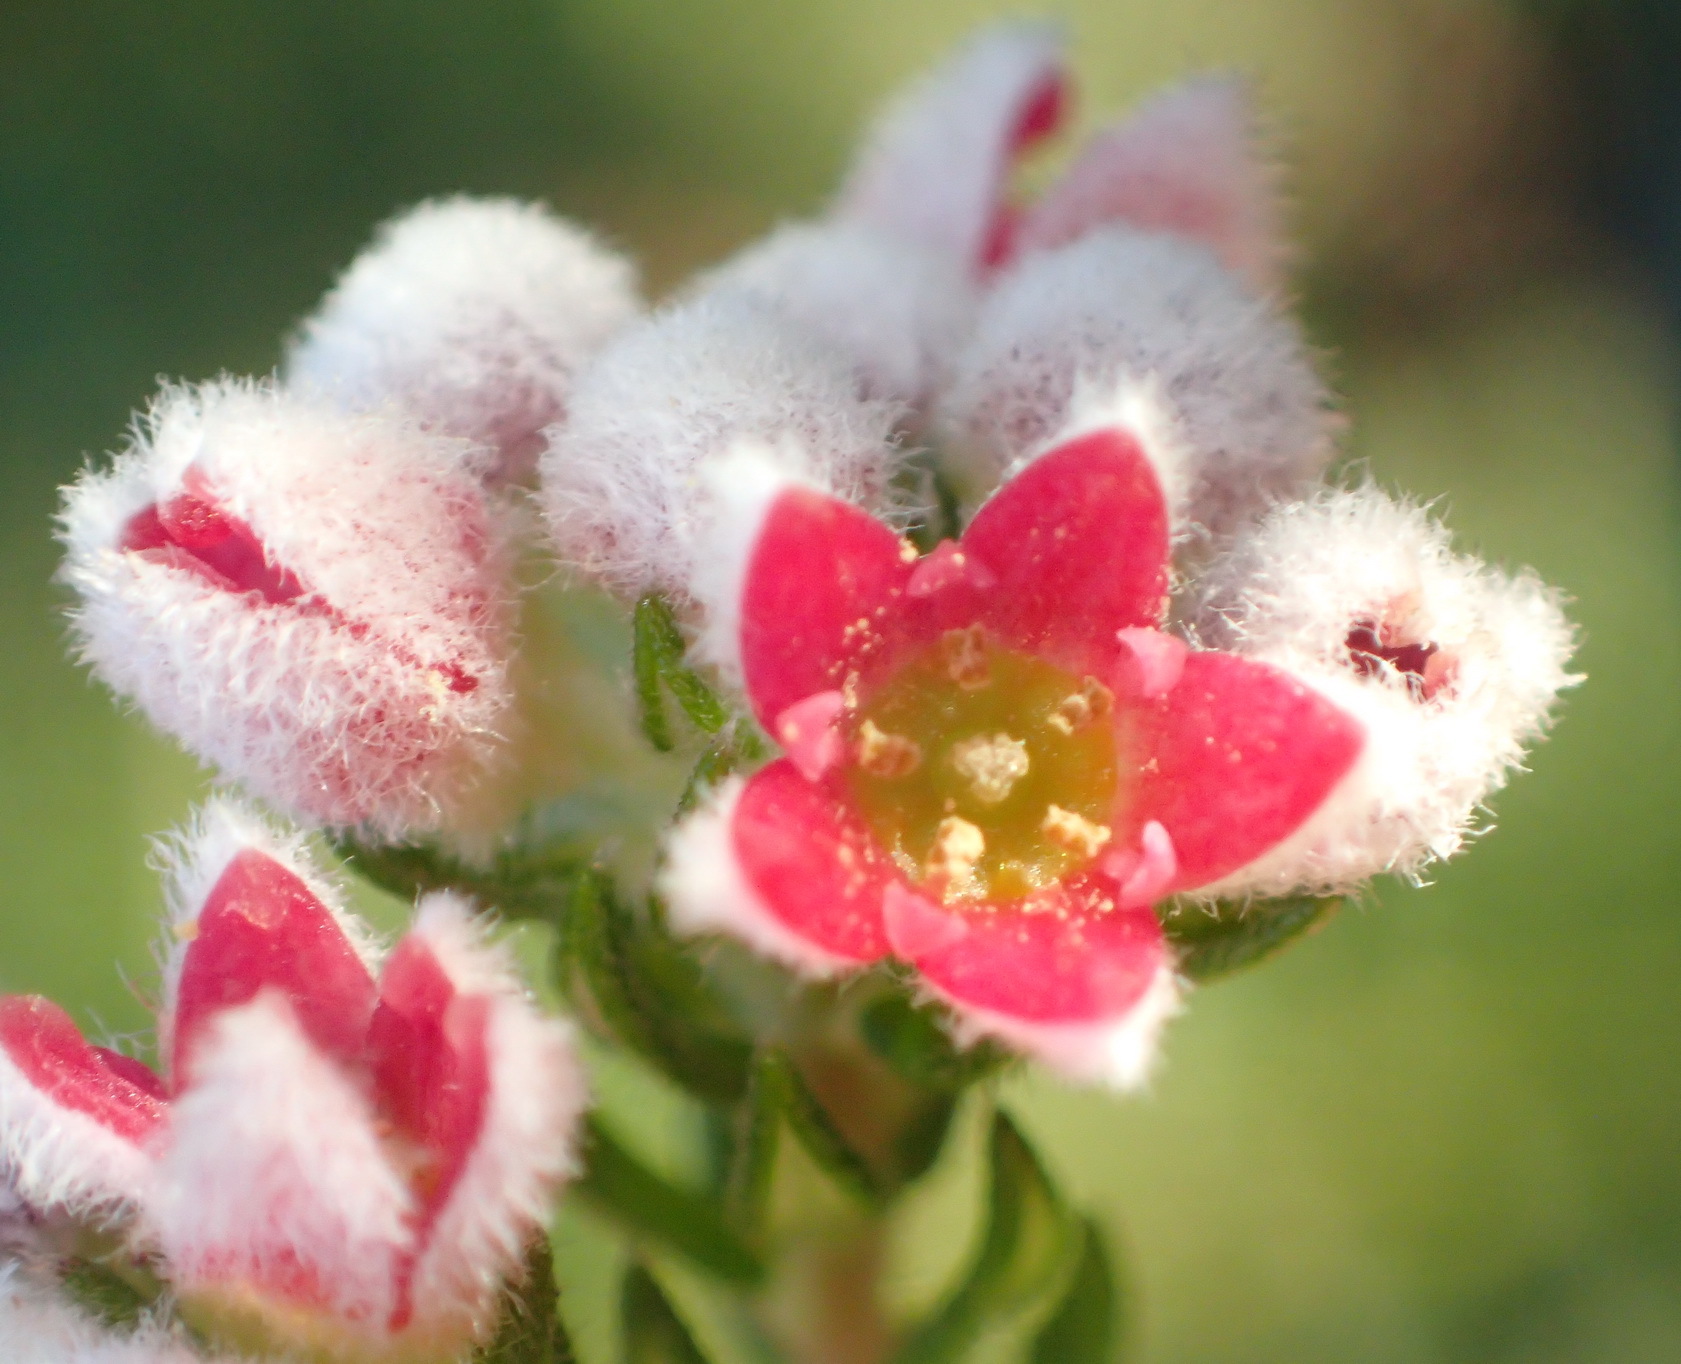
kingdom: Plantae
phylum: Tracheophyta
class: Magnoliopsida
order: Rosales
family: Rhamnaceae
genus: Phylica
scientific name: Phylica purpurea
